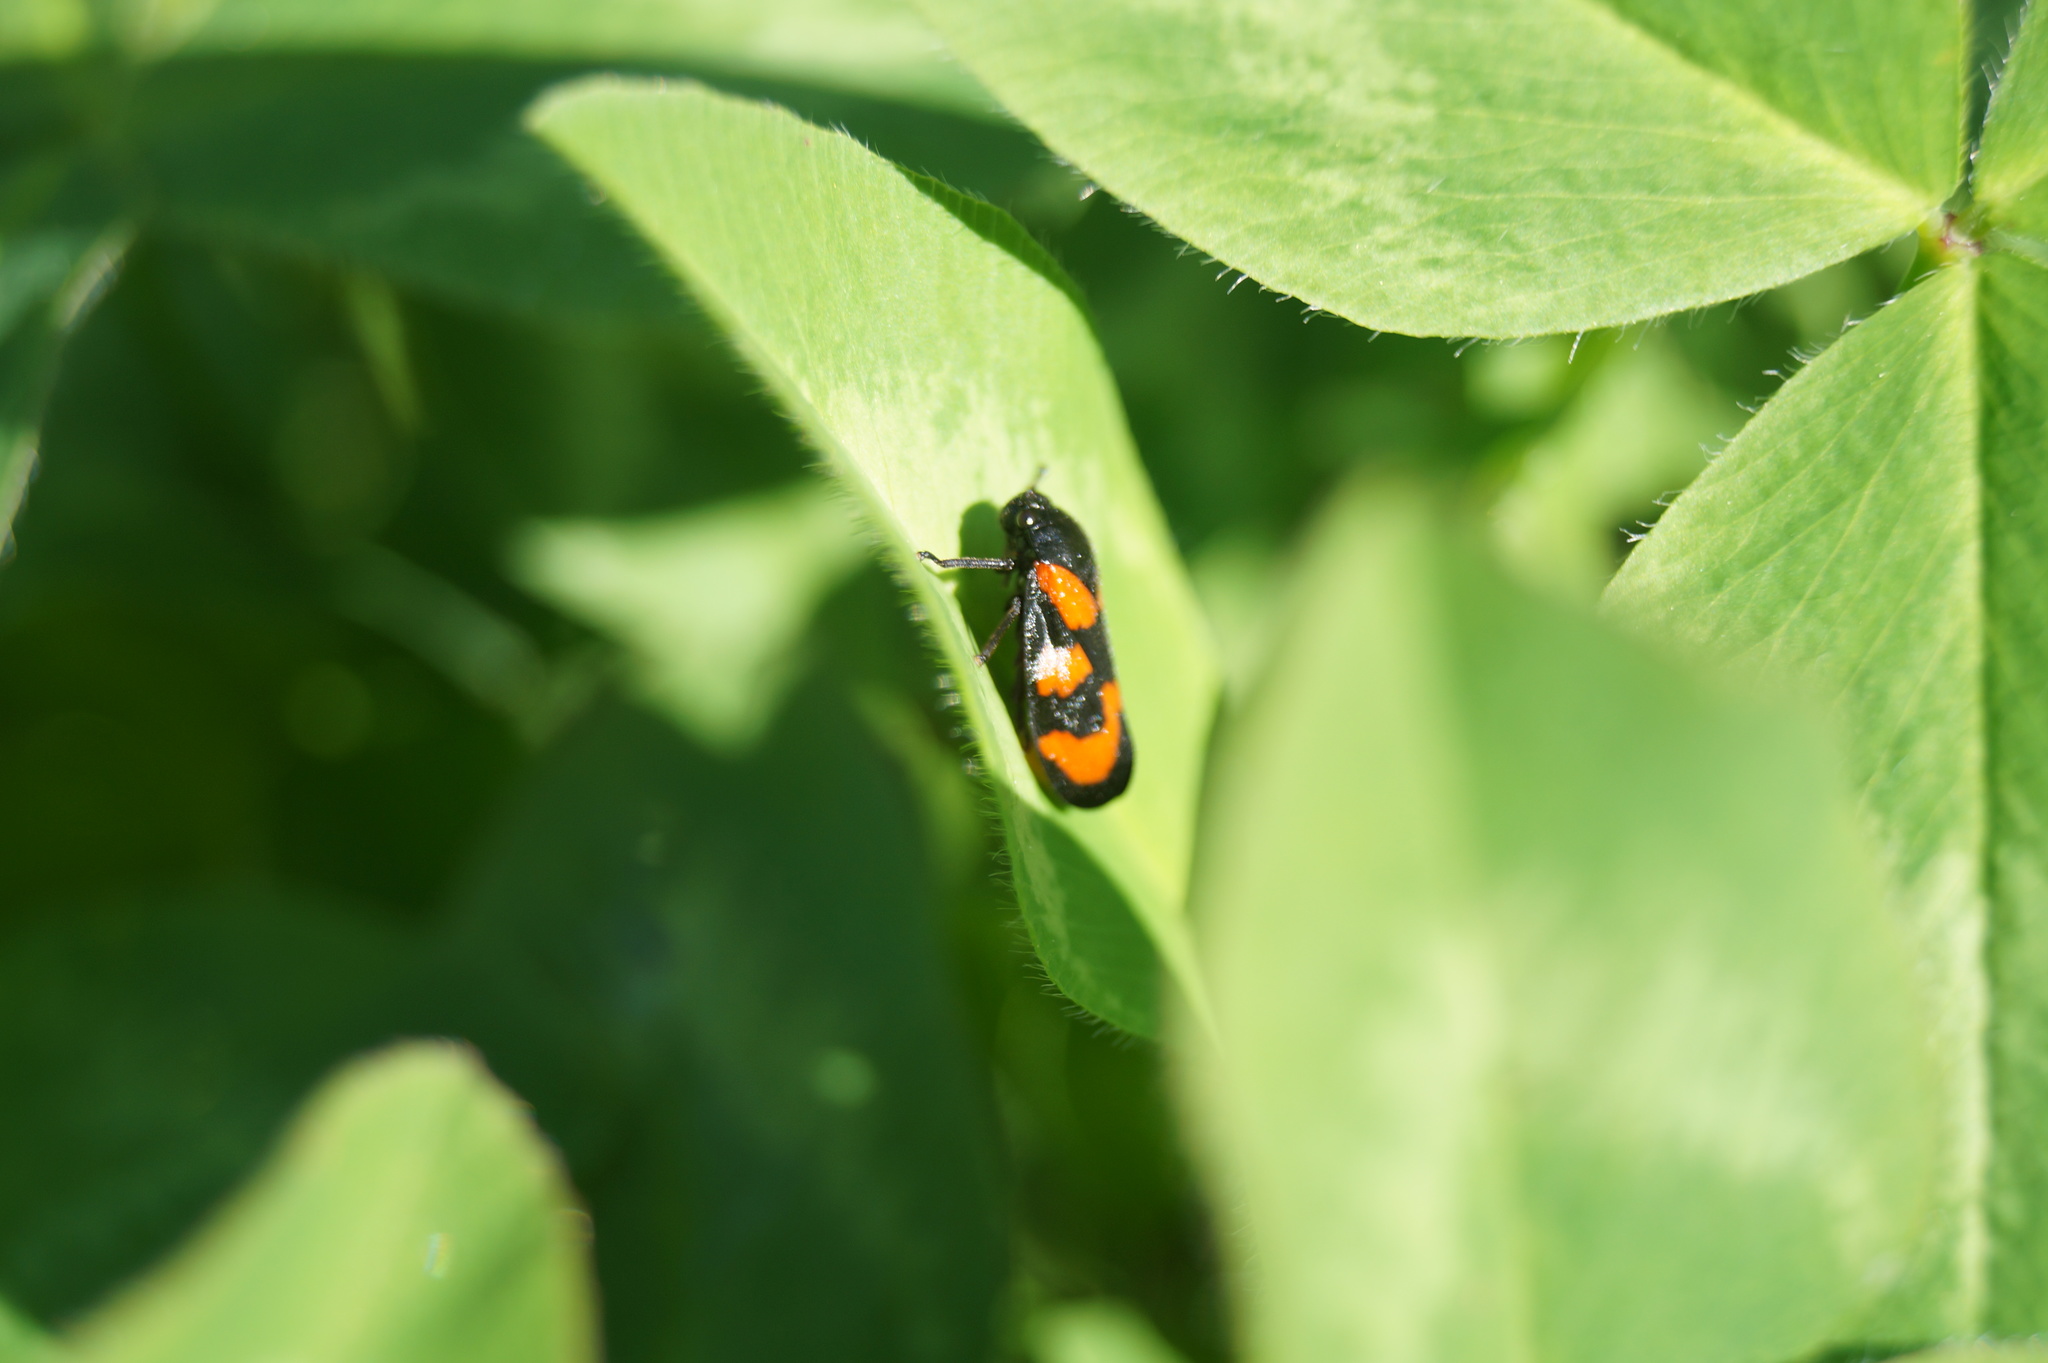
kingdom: Animalia
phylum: Arthropoda
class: Insecta
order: Hemiptera
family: Cercopidae
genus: Cercopis
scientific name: Cercopis vulnerata
